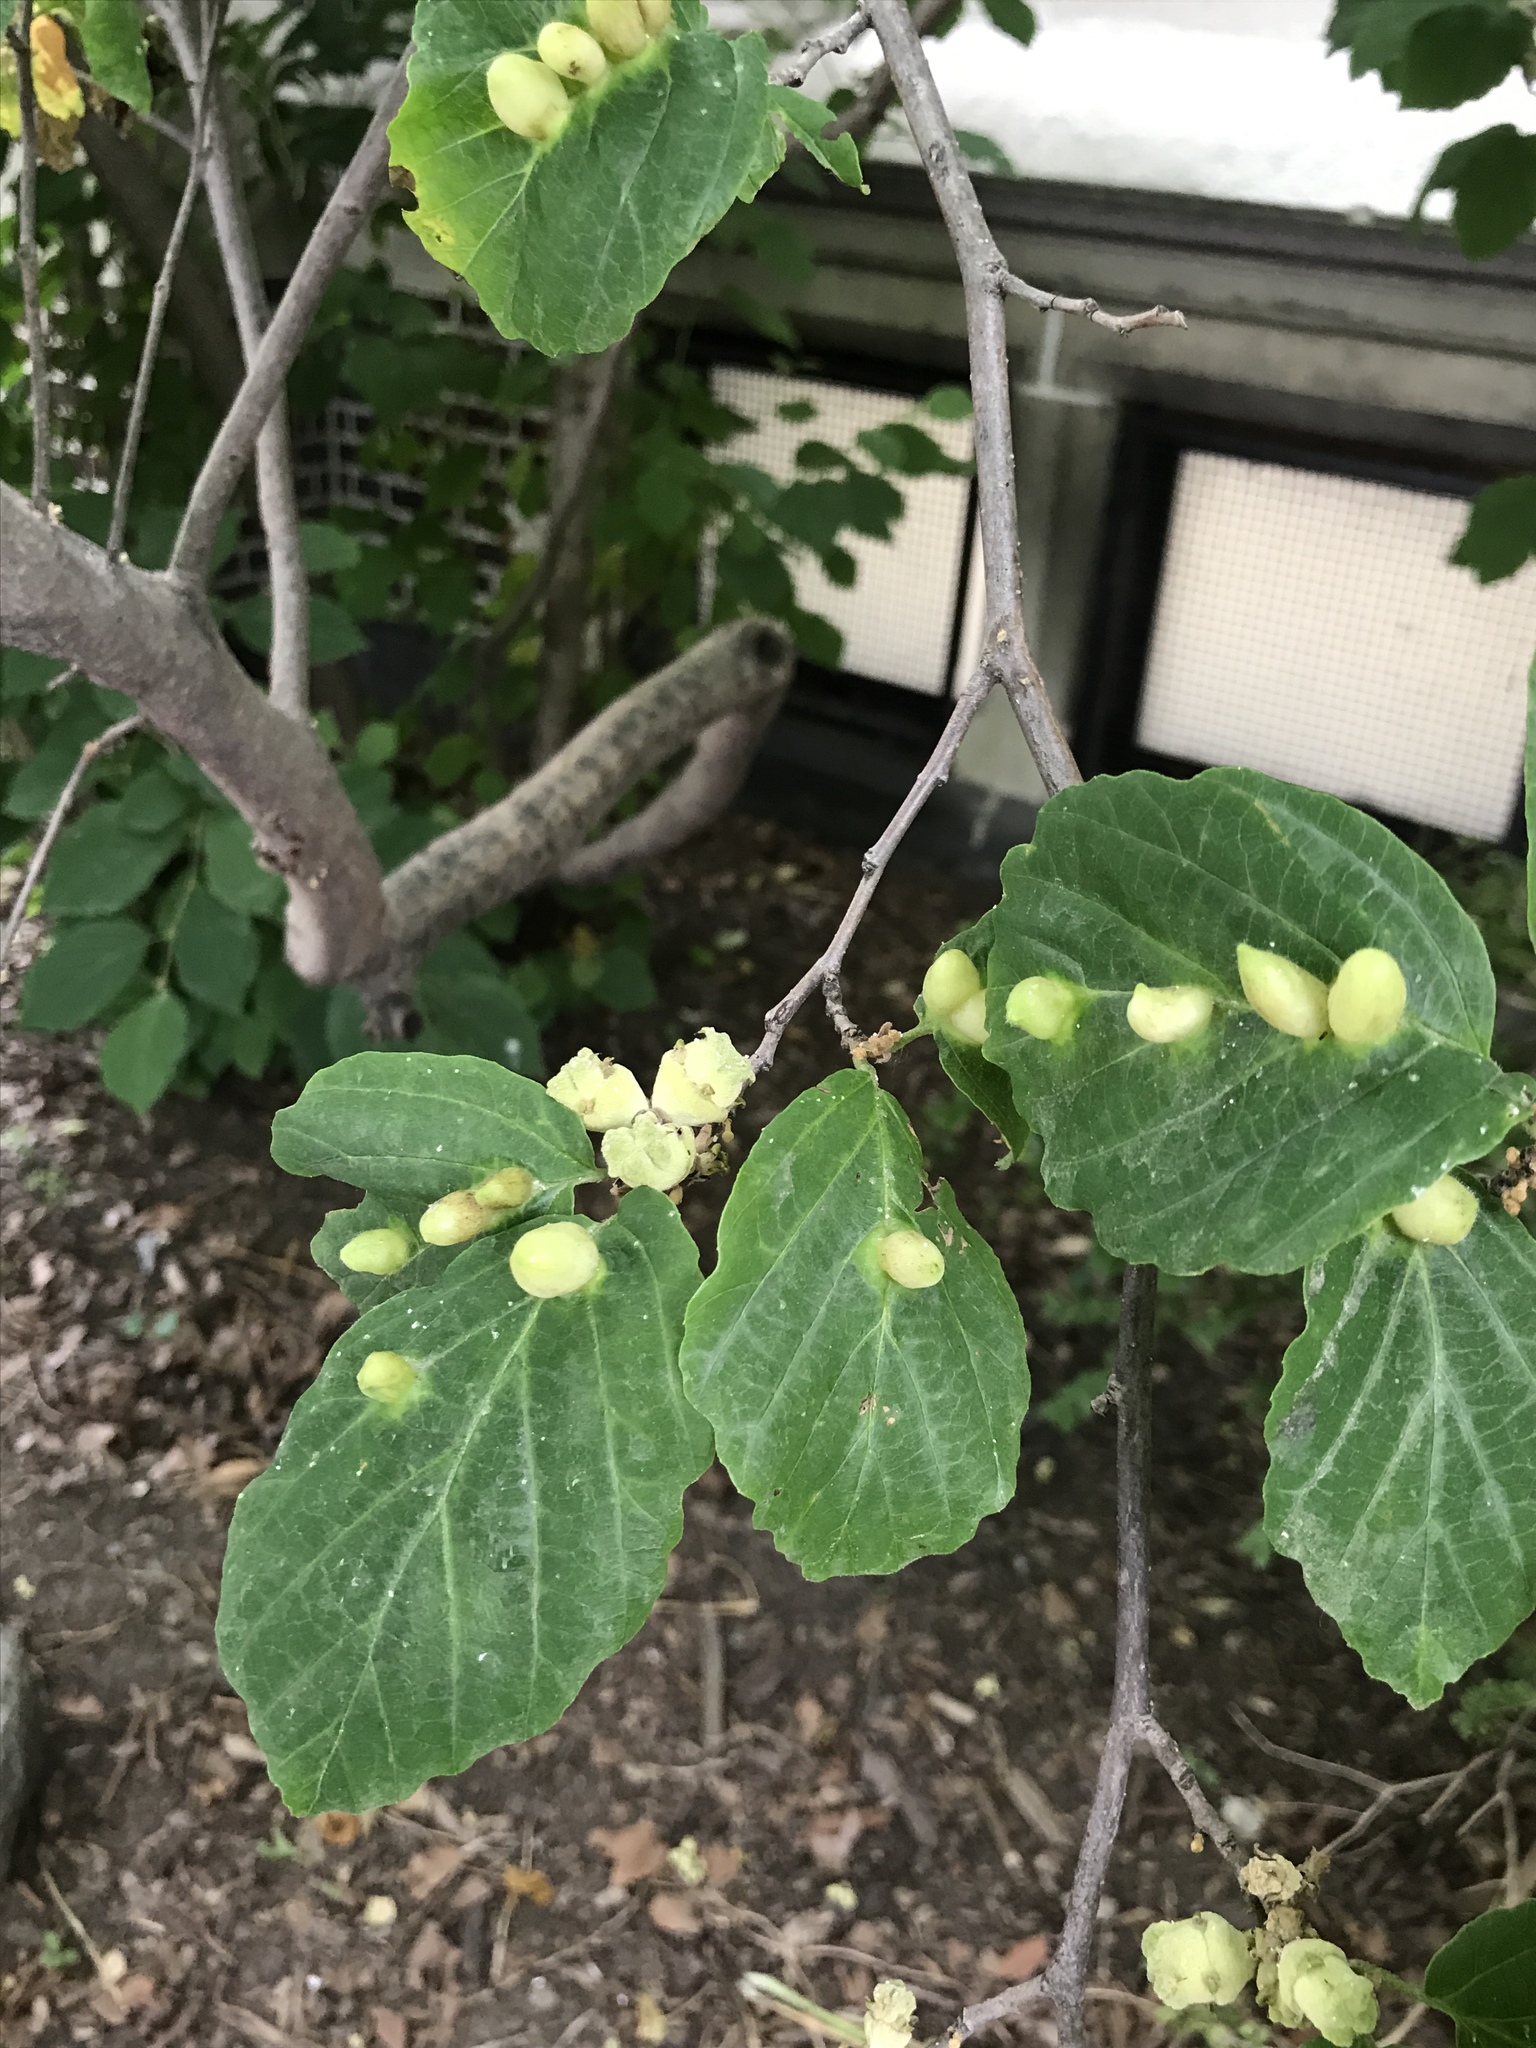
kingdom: Animalia
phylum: Arthropoda
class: Insecta
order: Hemiptera
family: Aphididae
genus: Hormaphis
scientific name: Hormaphis hamamelidis
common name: Witch-hazel cone gall aphid
